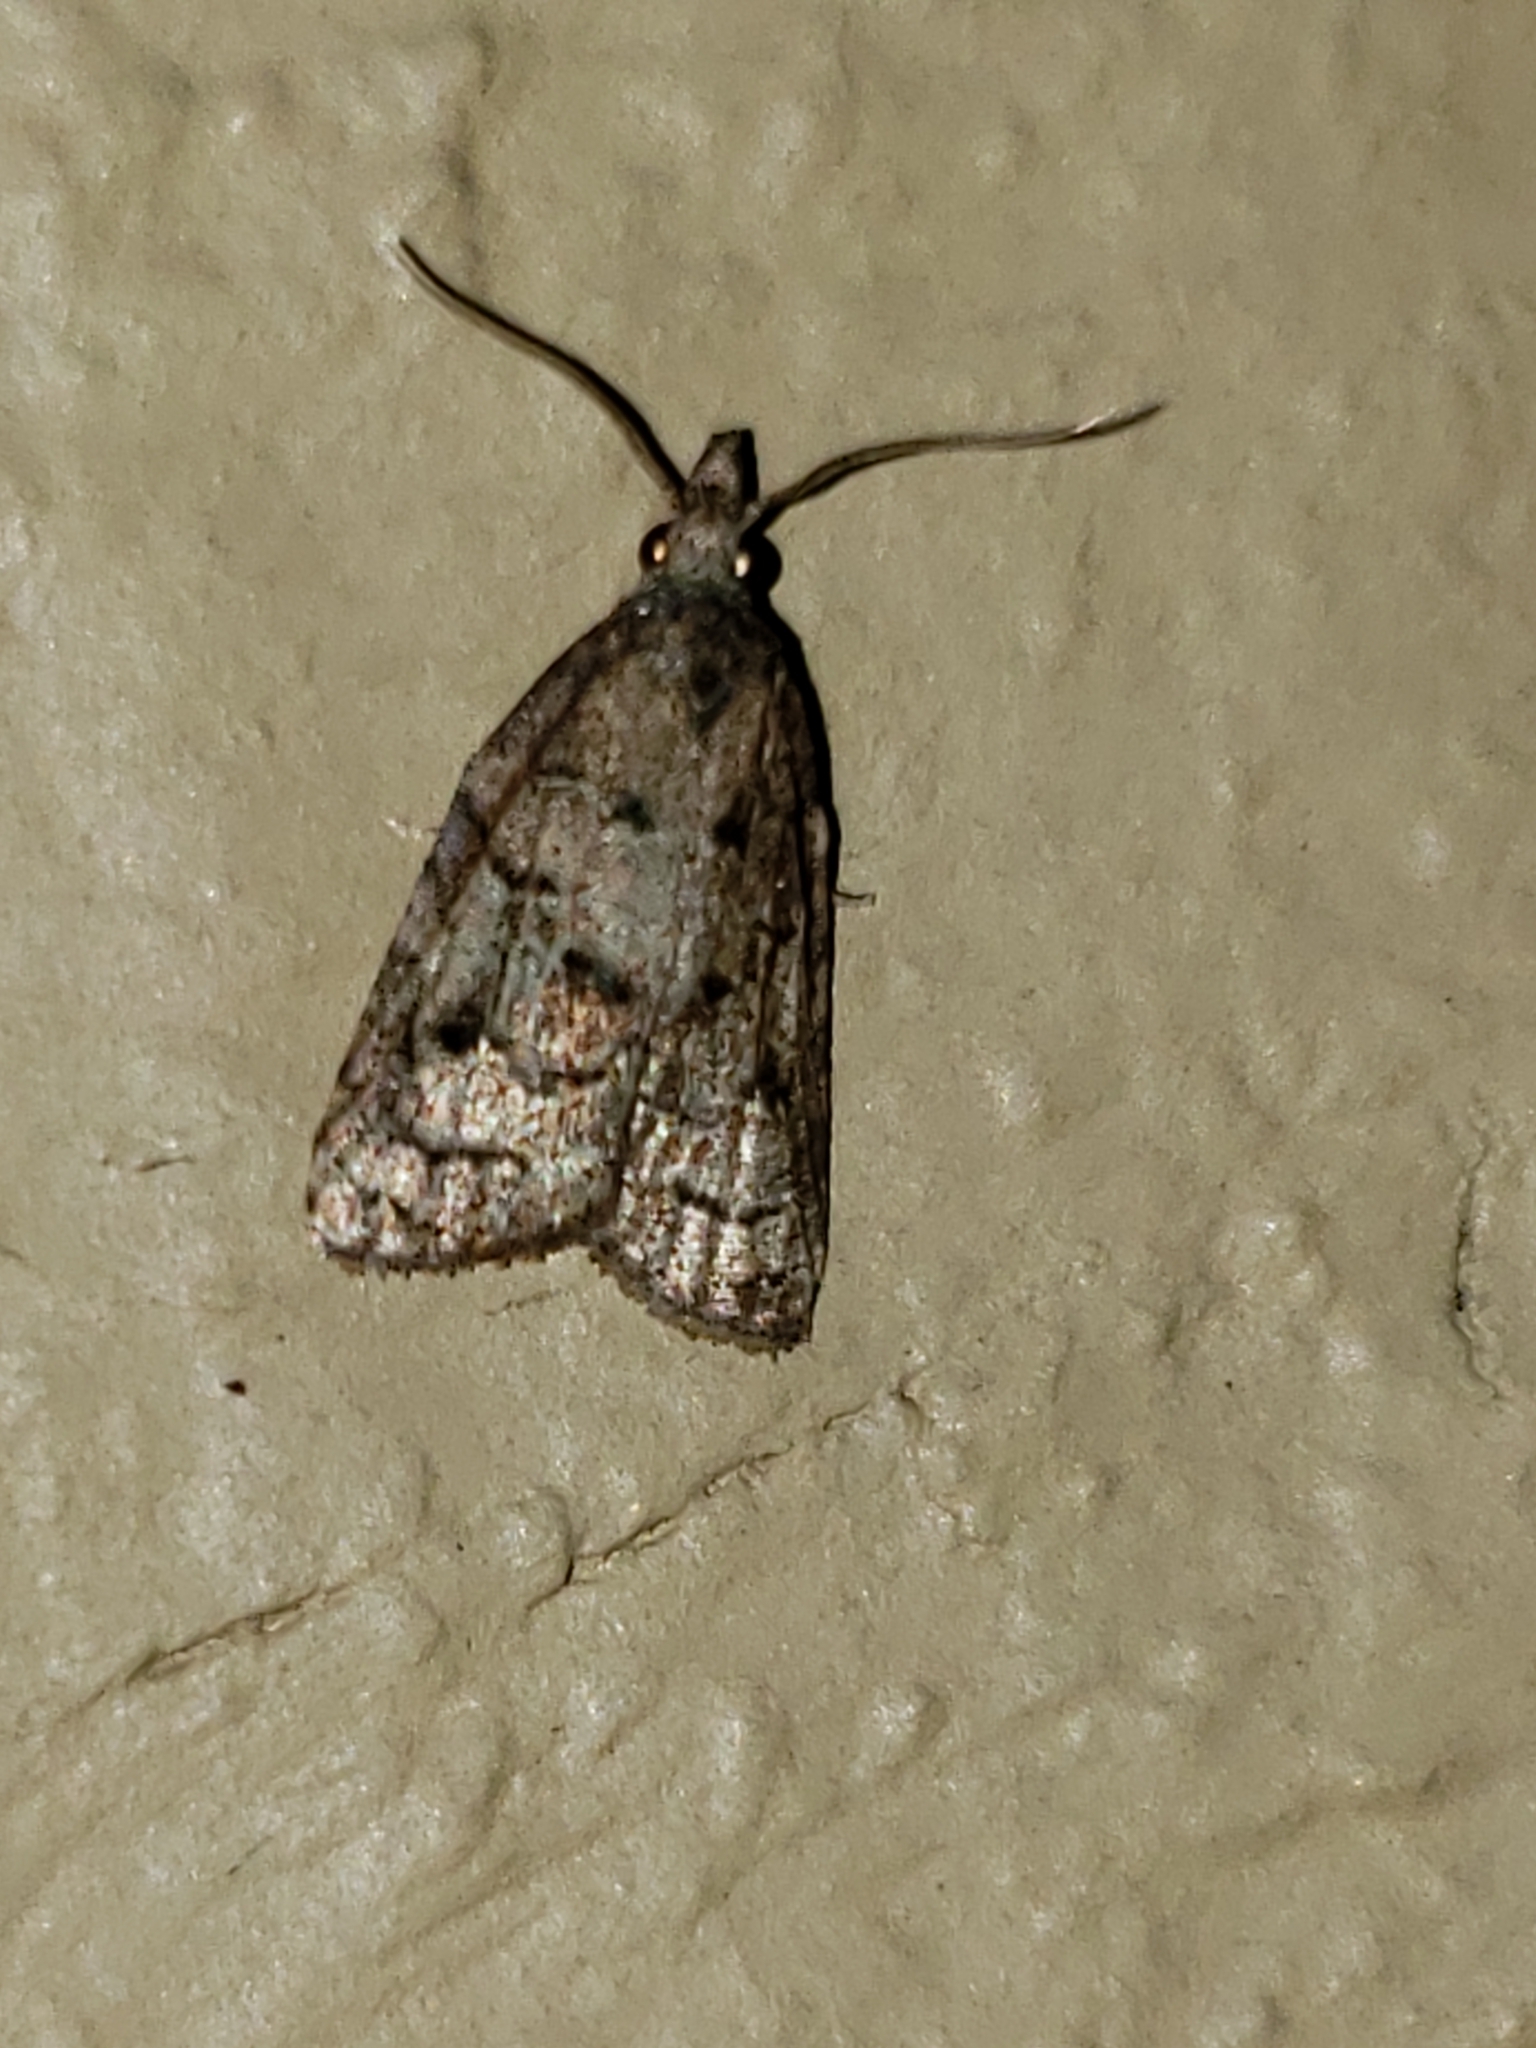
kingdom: Animalia
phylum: Arthropoda
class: Insecta
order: Lepidoptera
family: Tortricidae
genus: Platynota
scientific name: Platynota idaeusalis
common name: Tufted apple bud moth
